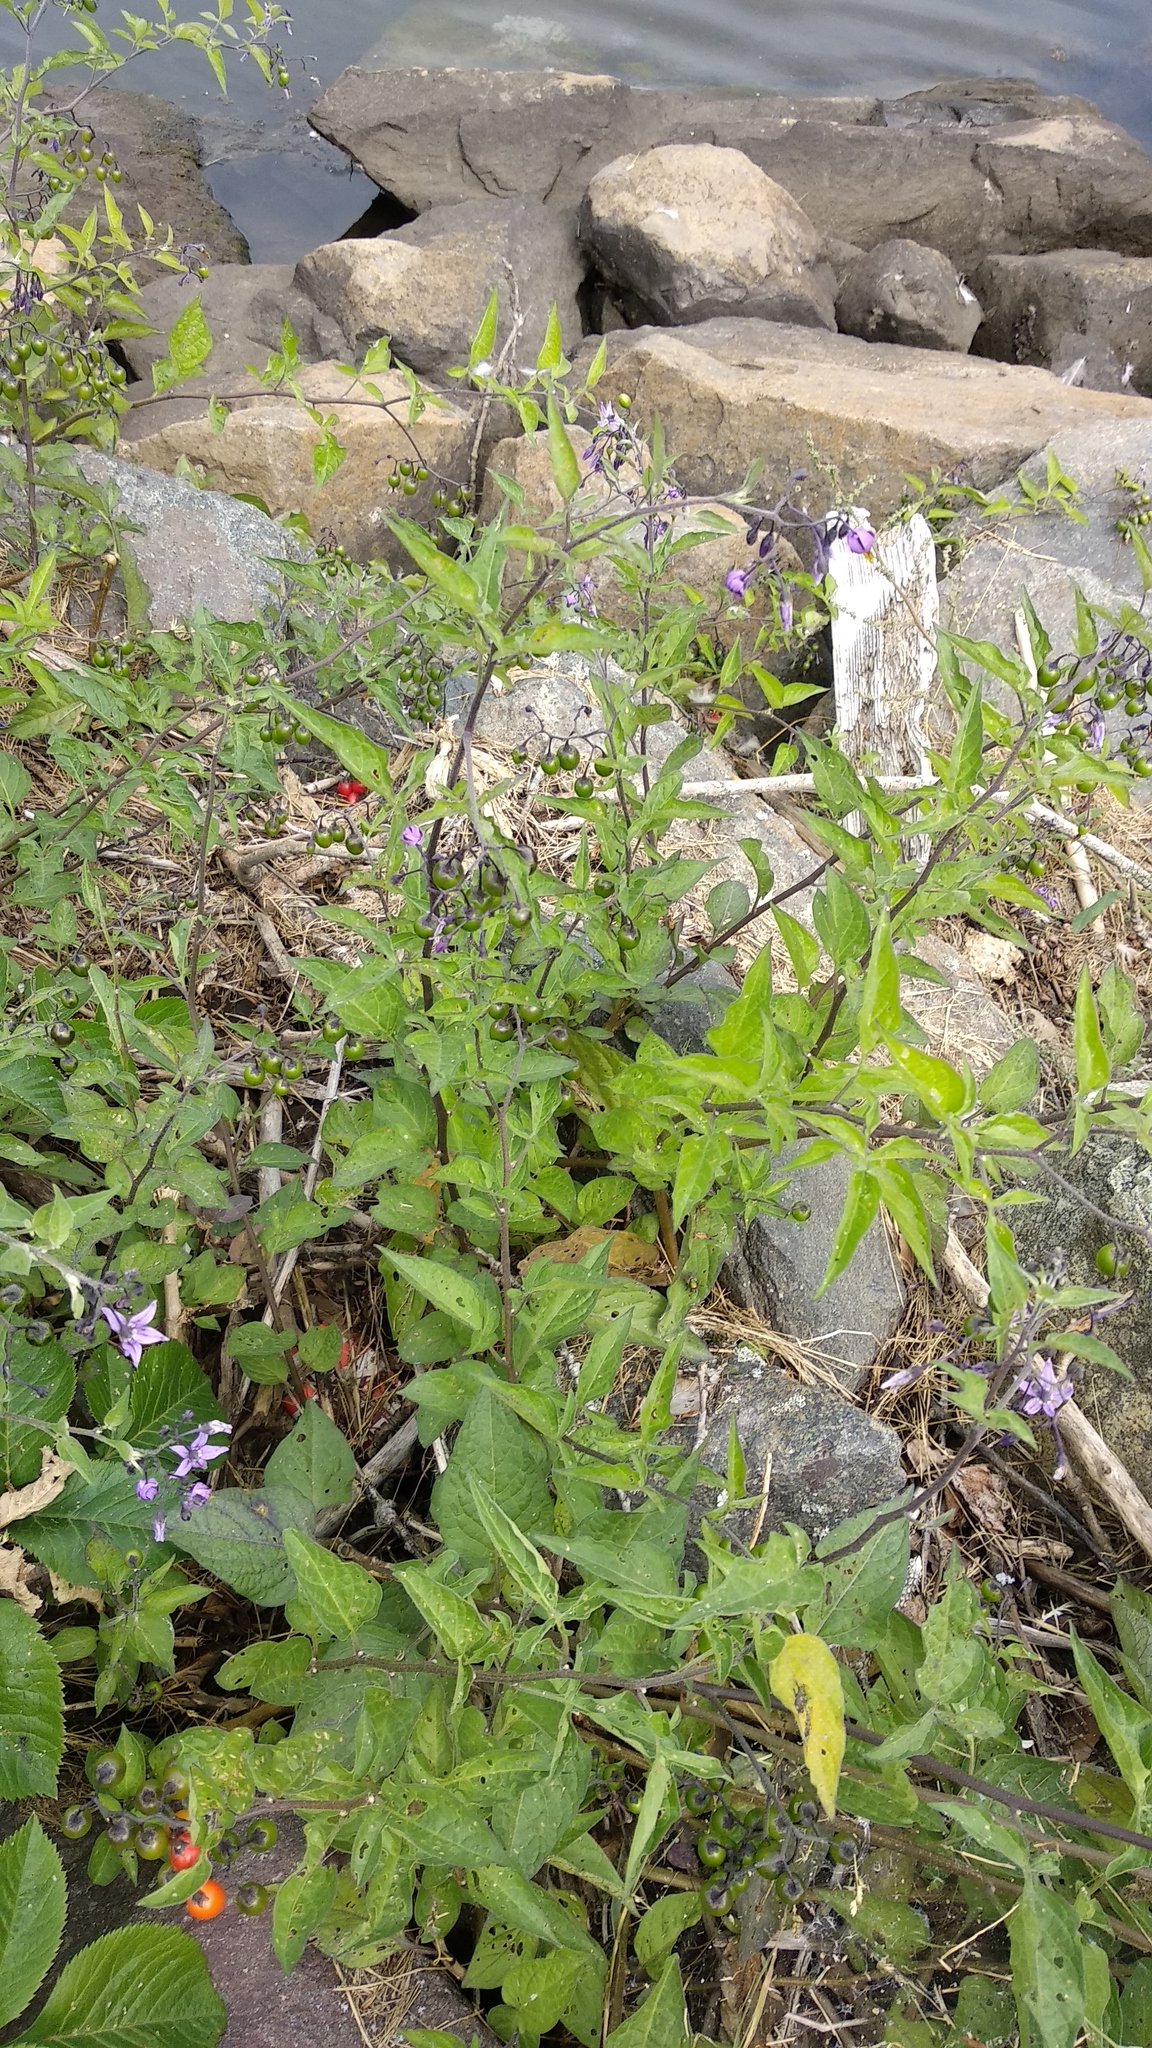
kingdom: Plantae
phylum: Tracheophyta
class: Magnoliopsida
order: Solanales
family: Solanaceae
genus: Solanum
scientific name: Solanum dulcamara
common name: Climbing nightshade
